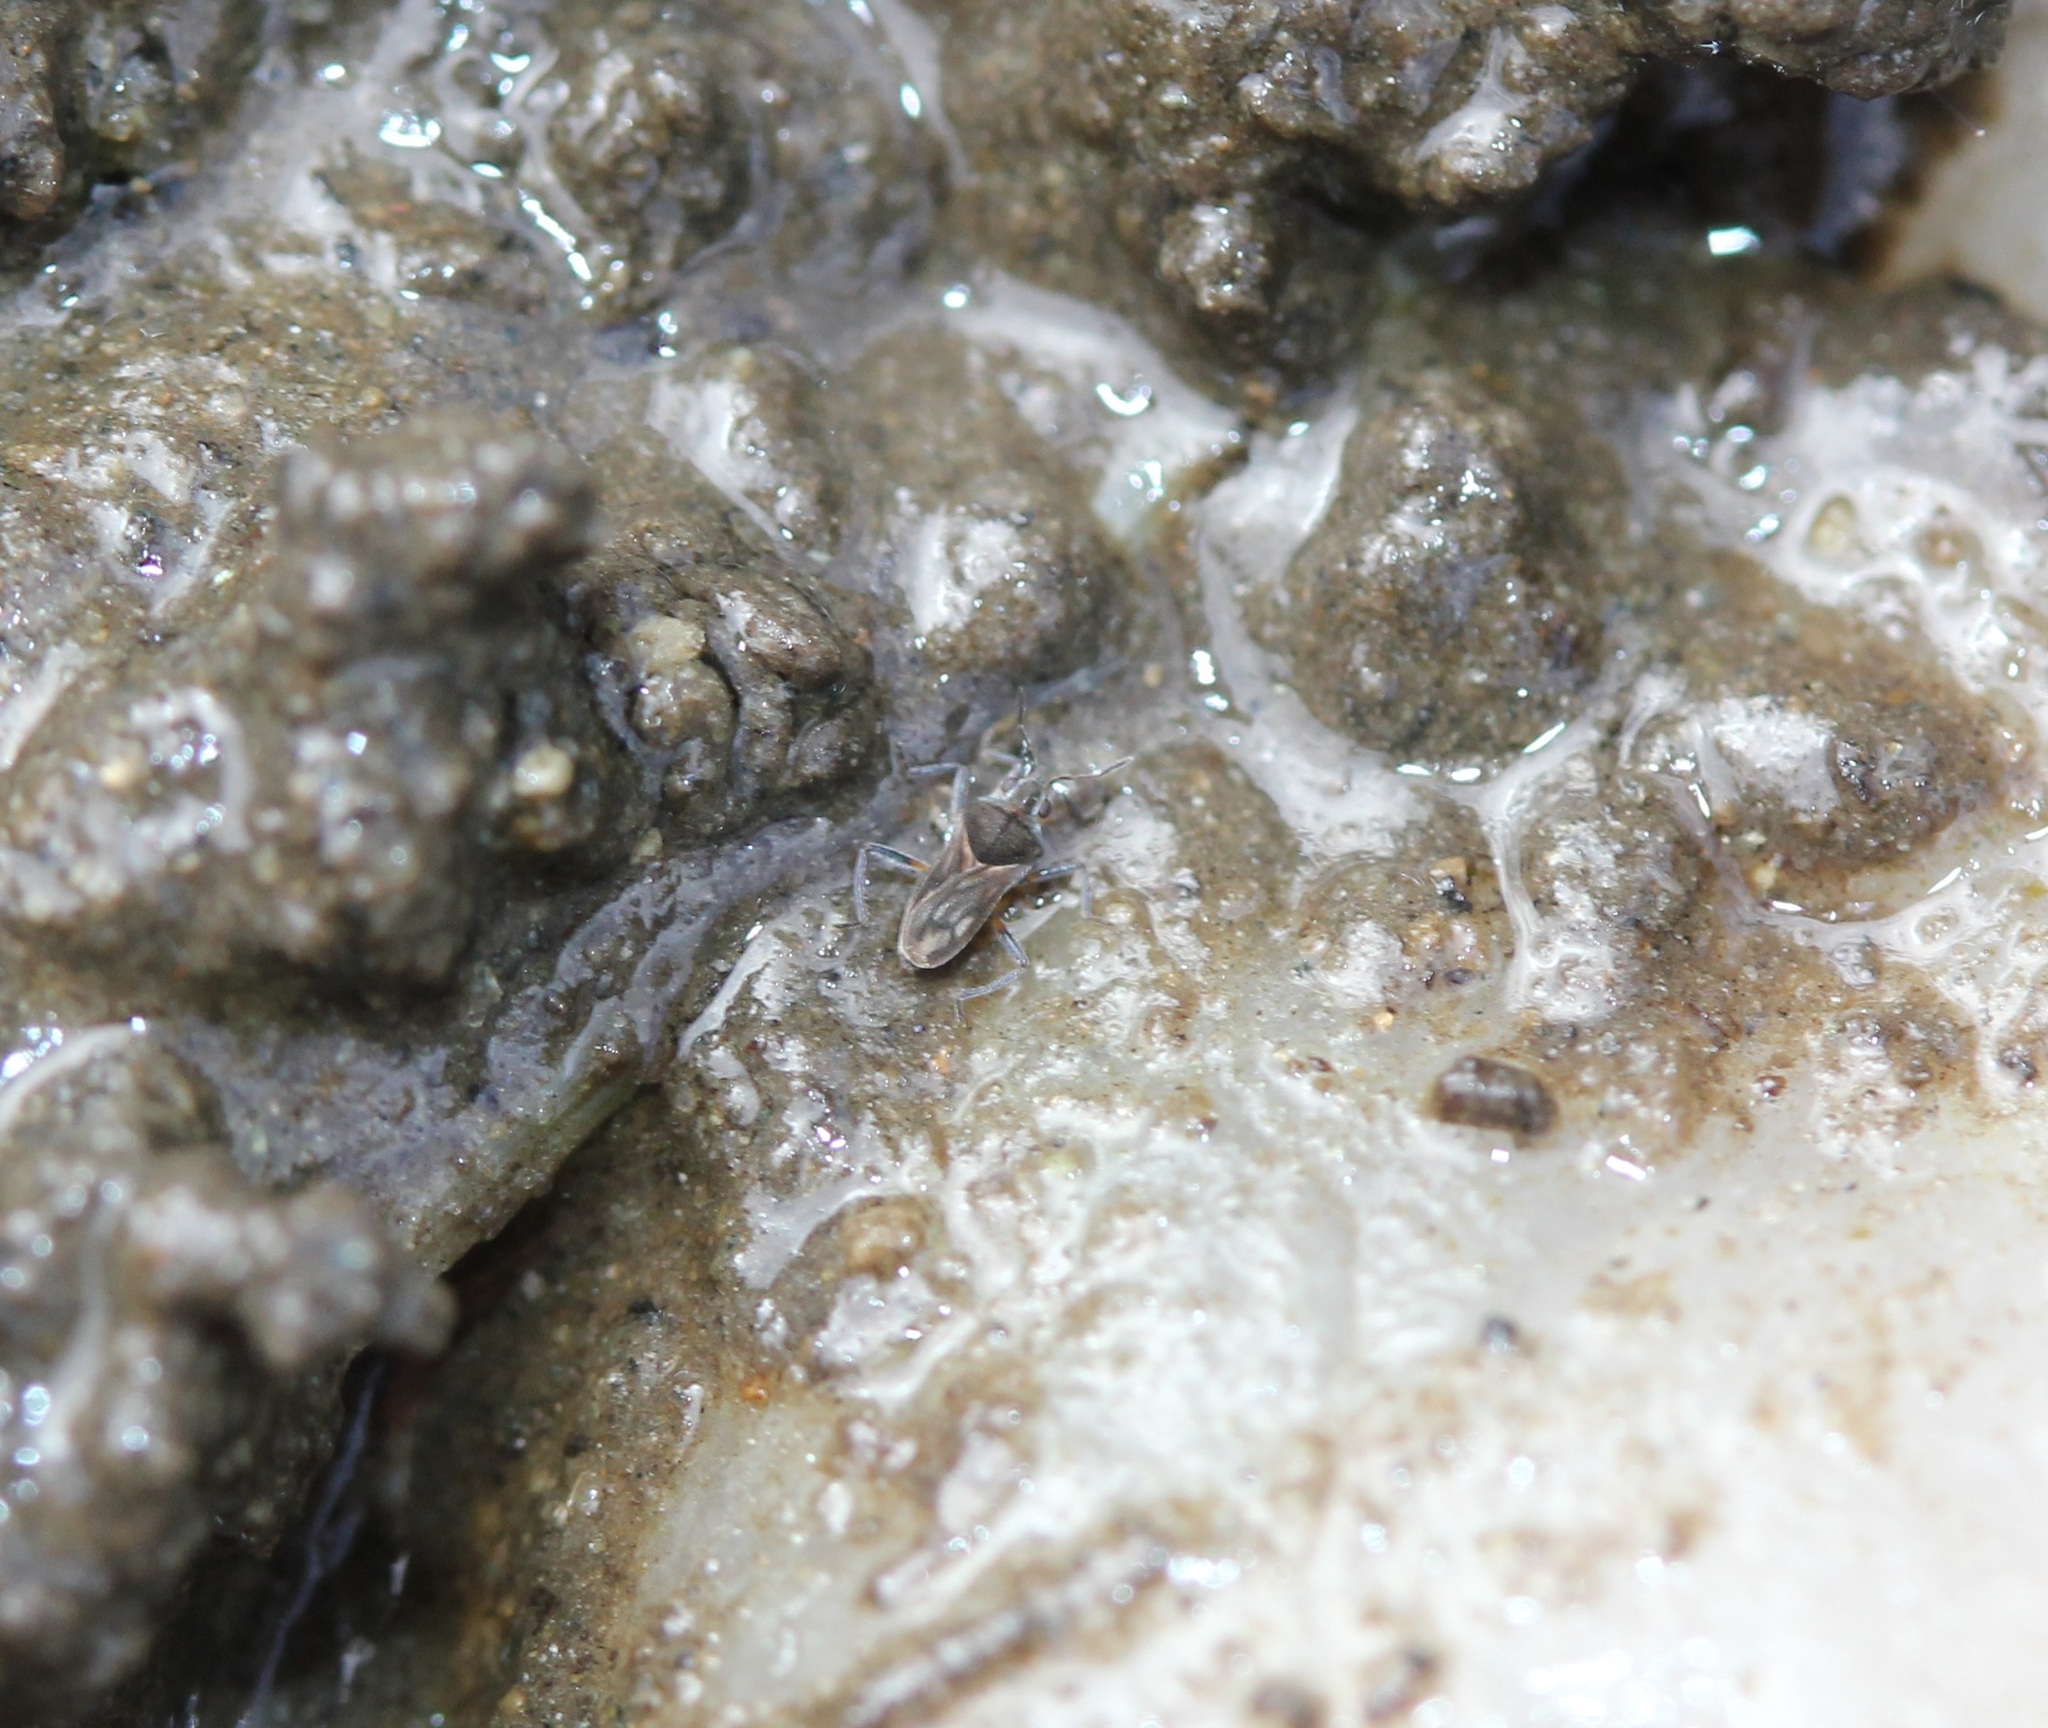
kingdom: Animalia
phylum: Arthropoda
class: Insecta
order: Hemiptera
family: Veliidae
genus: Microvelia
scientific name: Microvelia pulchella
